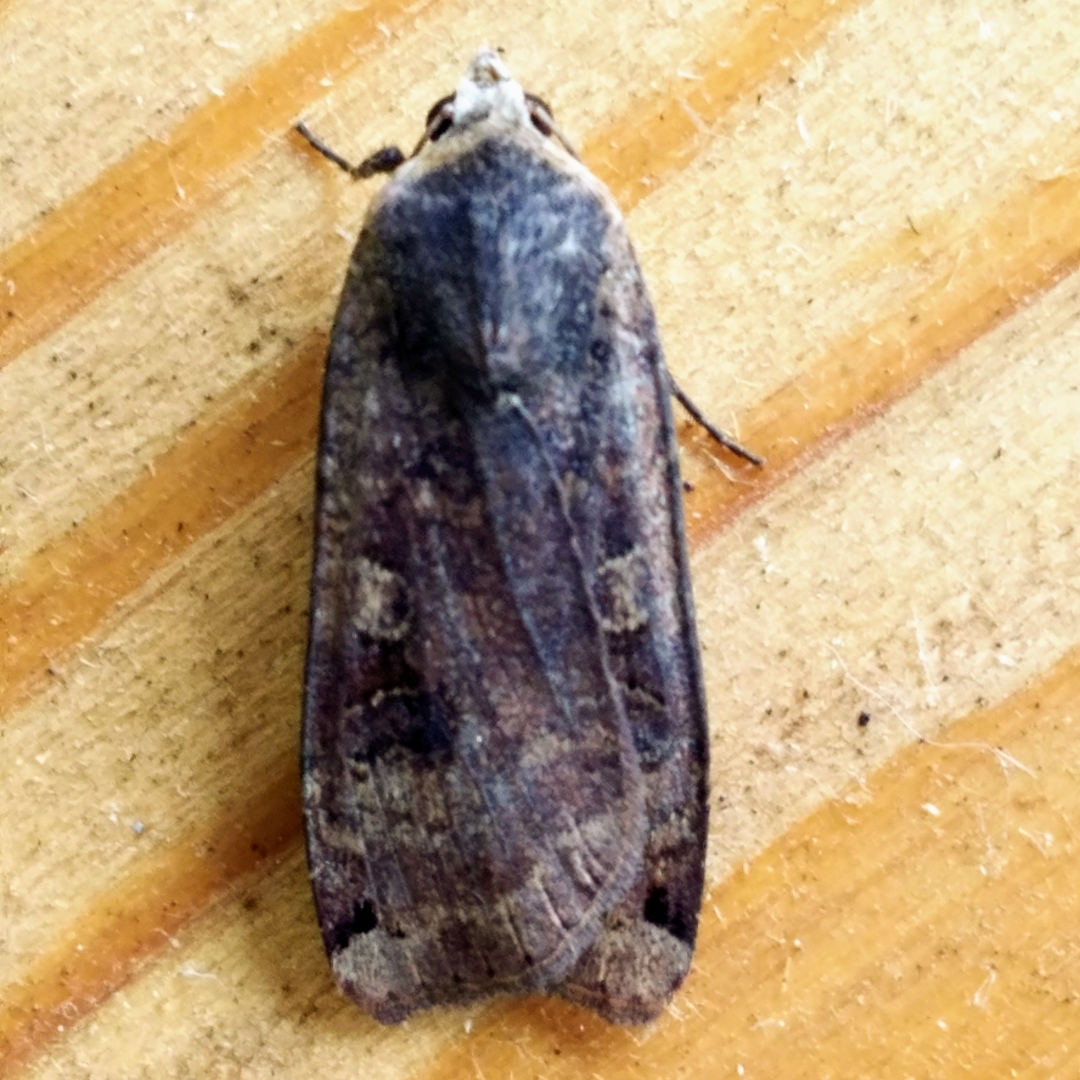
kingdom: Animalia
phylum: Arthropoda
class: Insecta
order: Lepidoptera
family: Noctuidae
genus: Noctua
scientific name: Noctua pronuba
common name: Large yellow underwing
